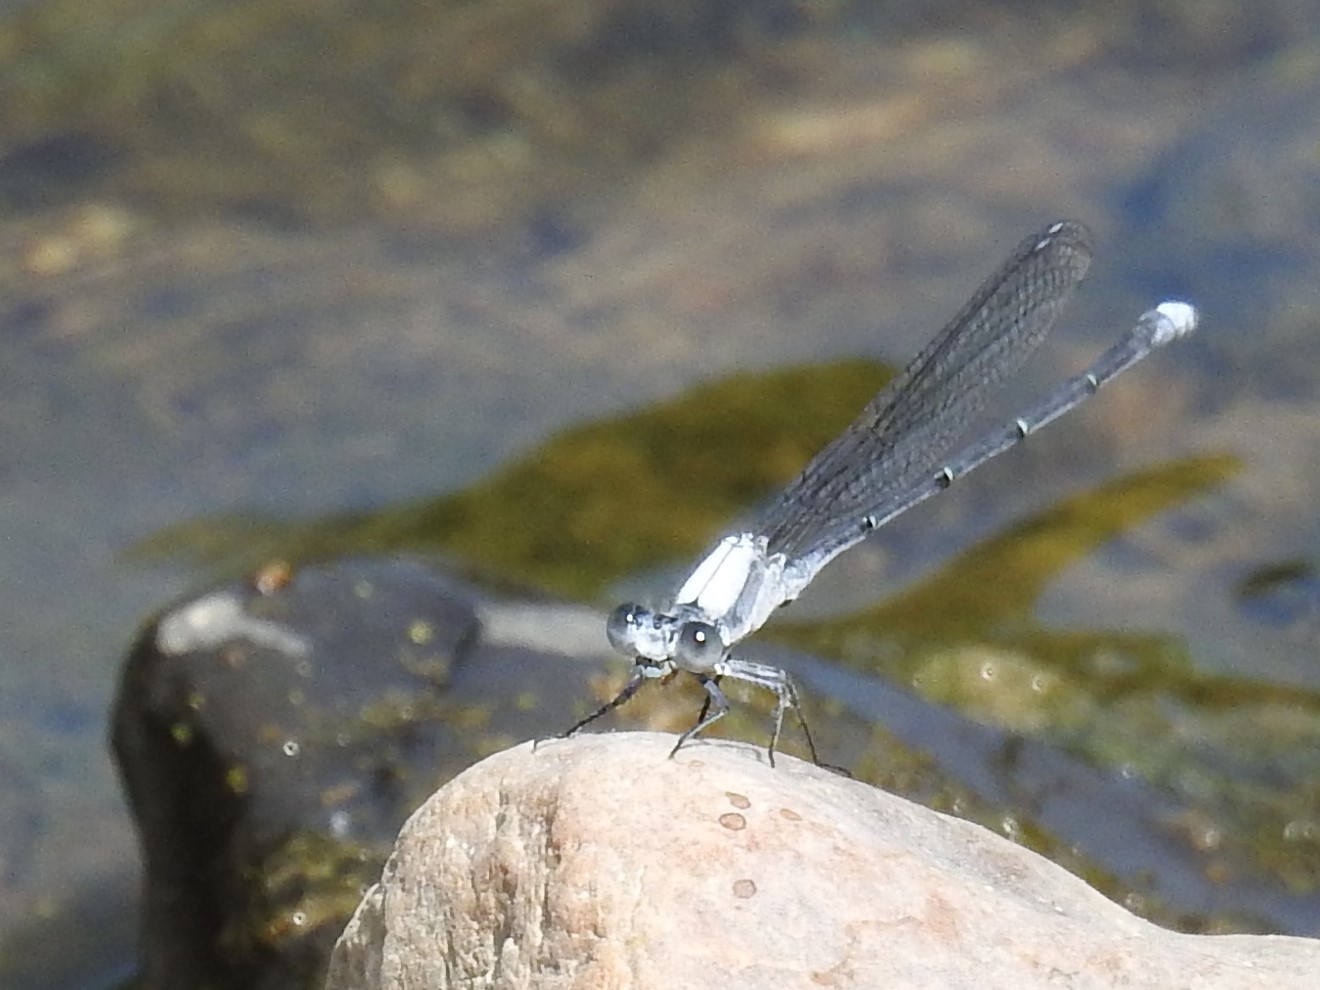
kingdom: Animalia
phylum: Arthropoda
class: Insecta
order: Odonata
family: Coenagrionidae
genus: Argia
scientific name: Argia moesta
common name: Powdered dancer
